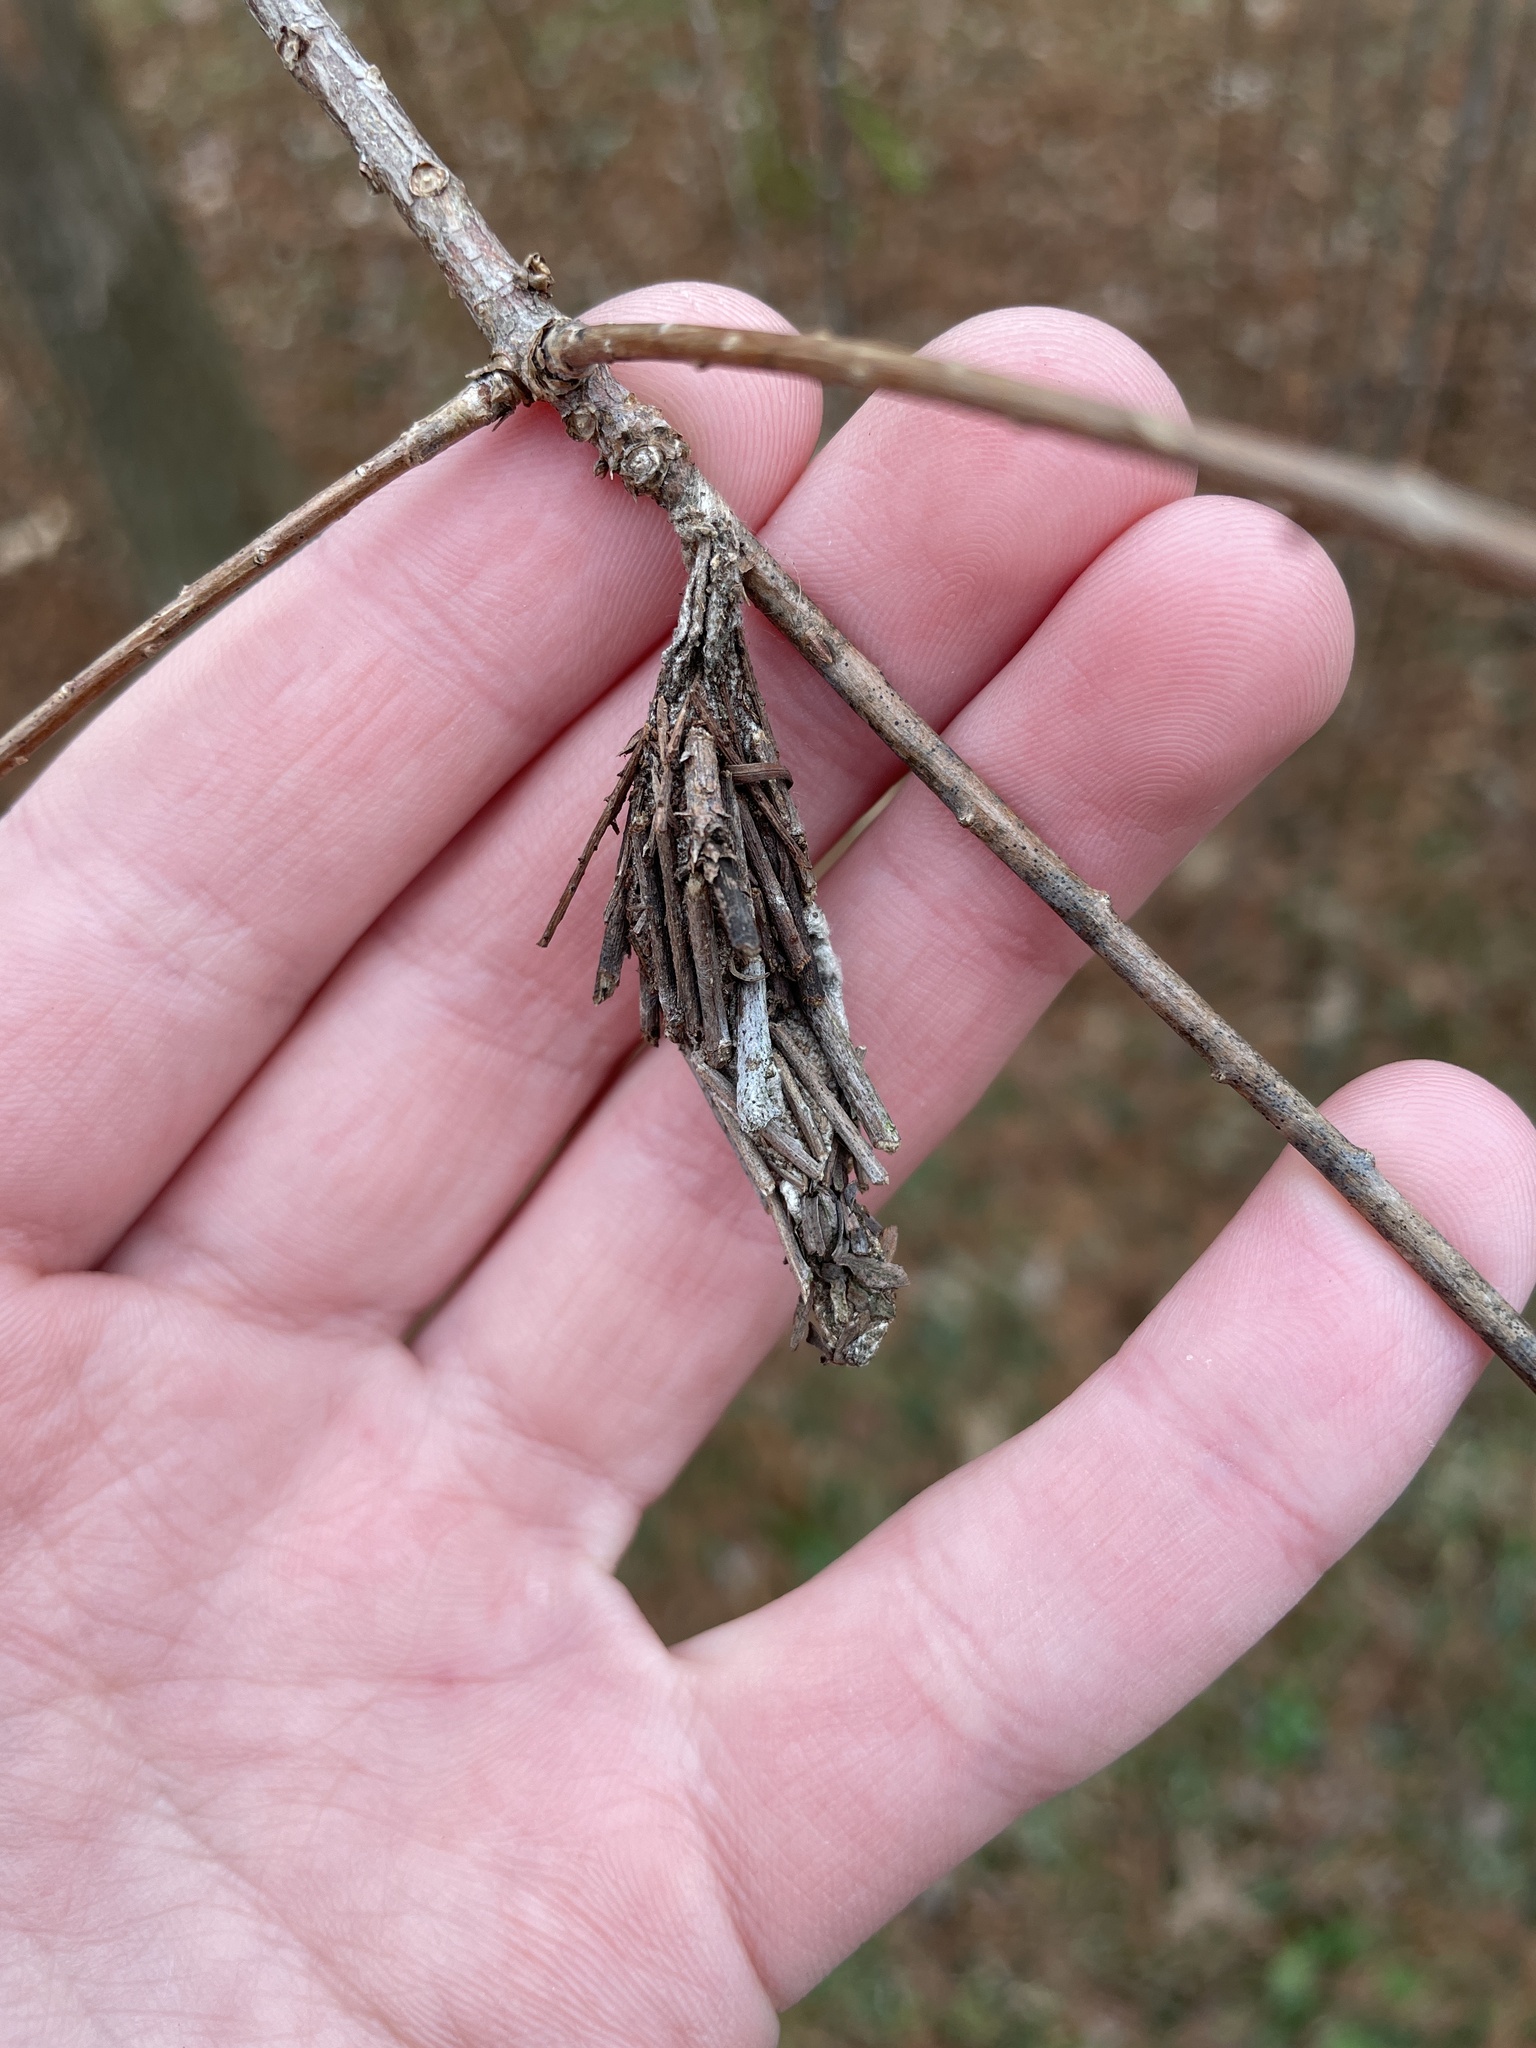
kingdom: Animalia
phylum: Arthropoda
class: Insecta
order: Lepidoptera
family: Psychidae
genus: Thyridopteryx
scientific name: Thyridopteryx ephemeraeformis
